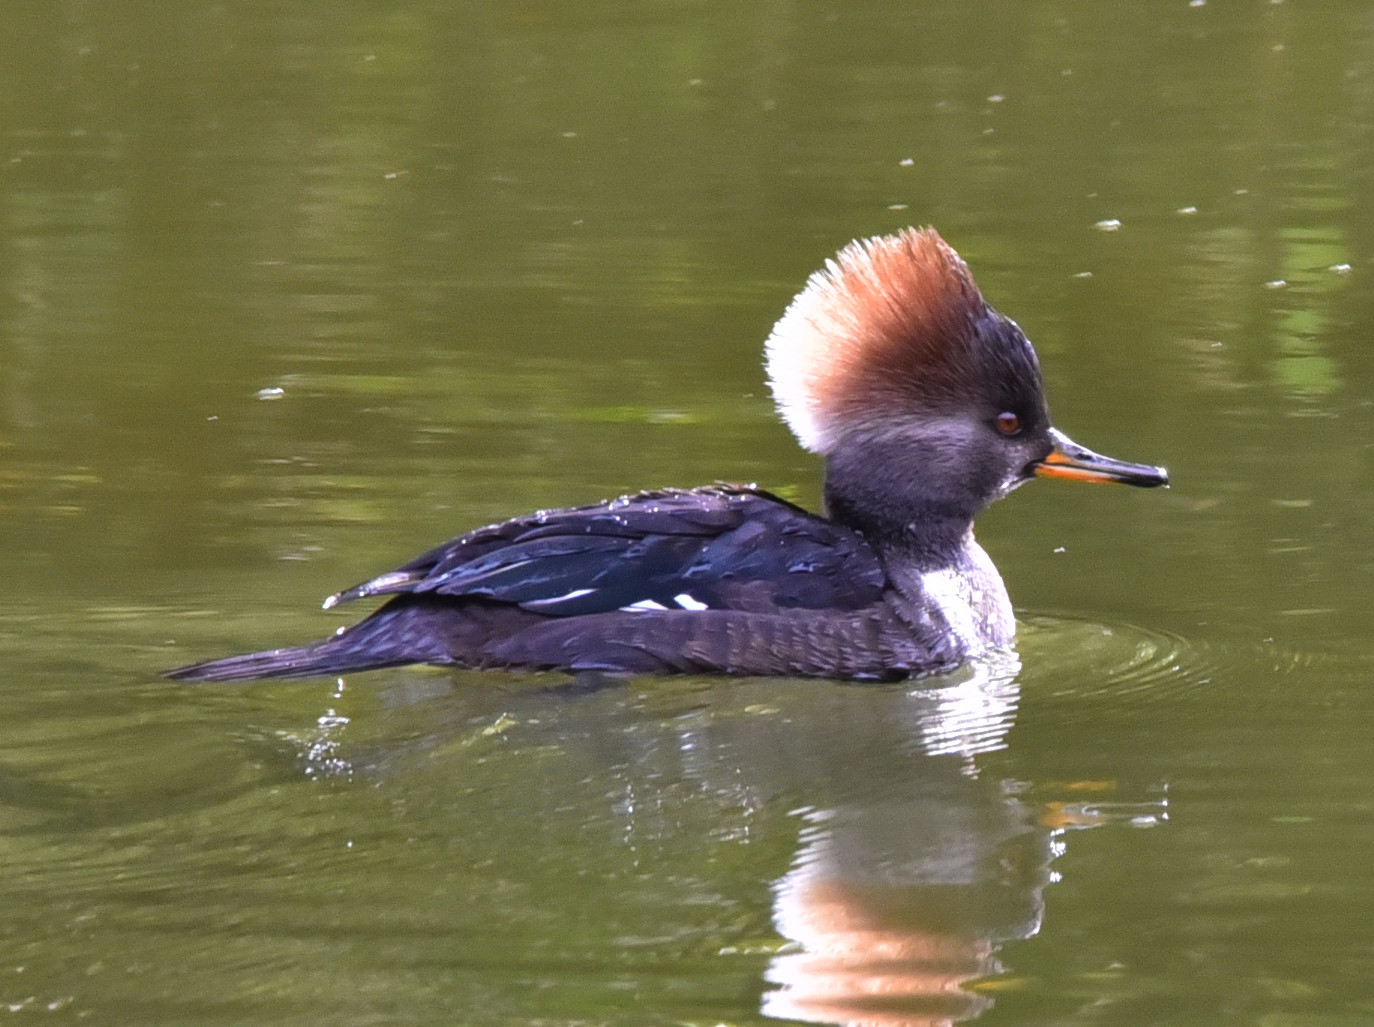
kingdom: Animalia
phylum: Chordata
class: Aves
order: Anseriformes
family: Anatidae
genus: Lophodytes
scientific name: Lophodytes cucullatus
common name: Hooded merganser
